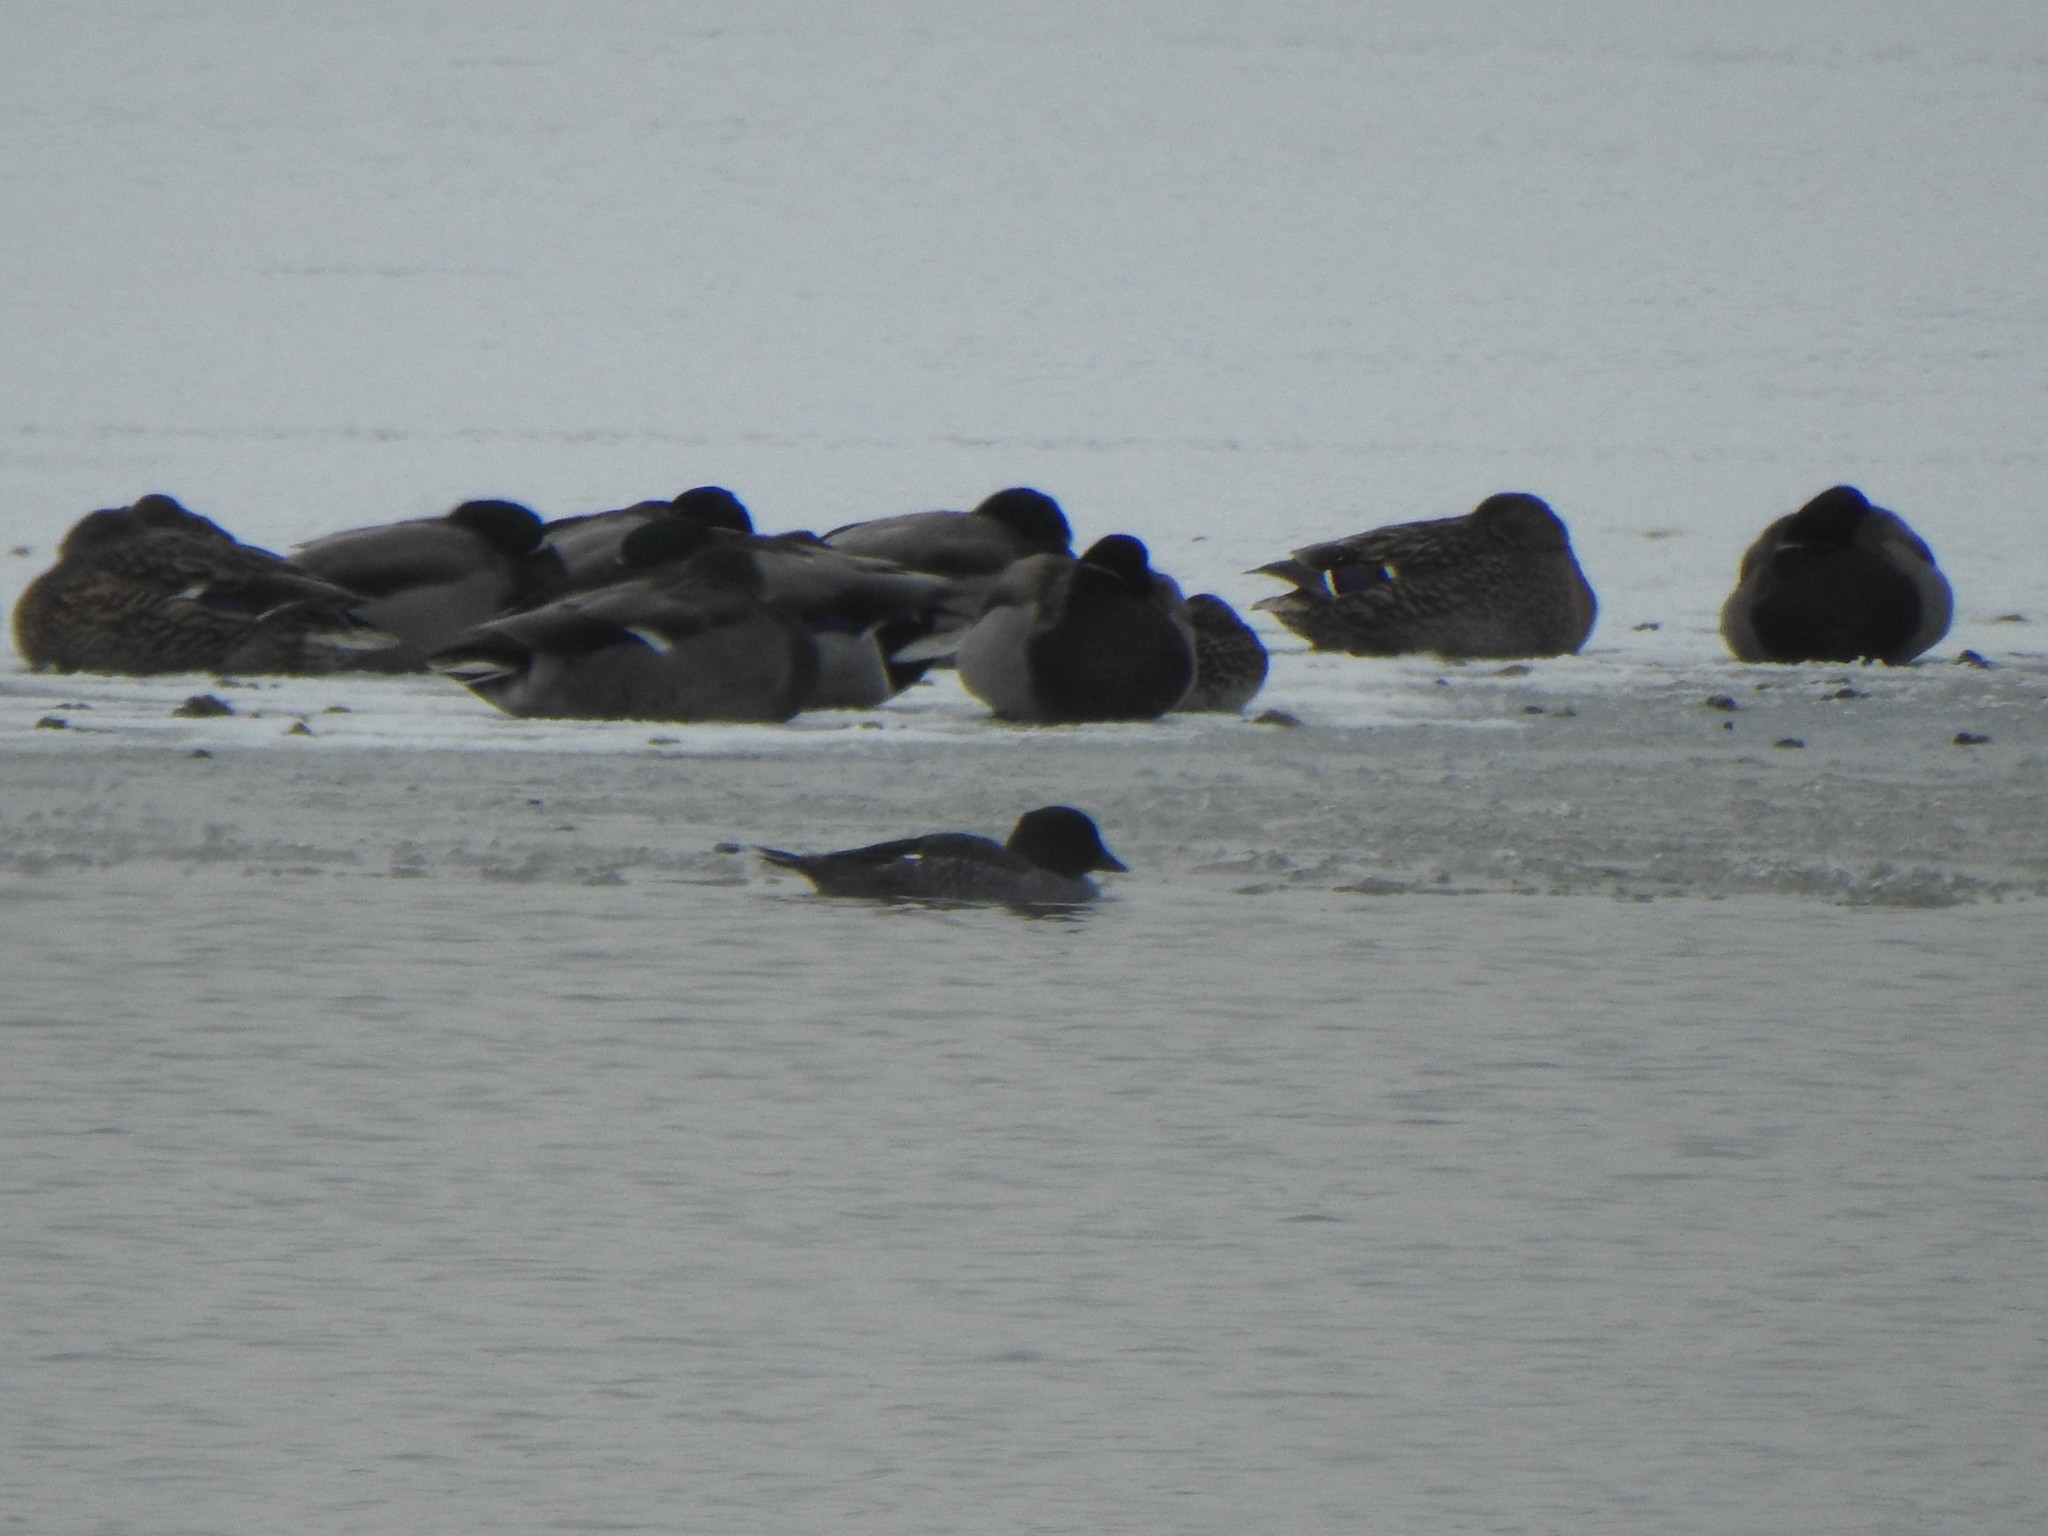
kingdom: Animalia
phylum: Chordata
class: Aves
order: Anseriformes
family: Anatidae
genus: Bucephala
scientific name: Bucephala clangula
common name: Common goldeneye
